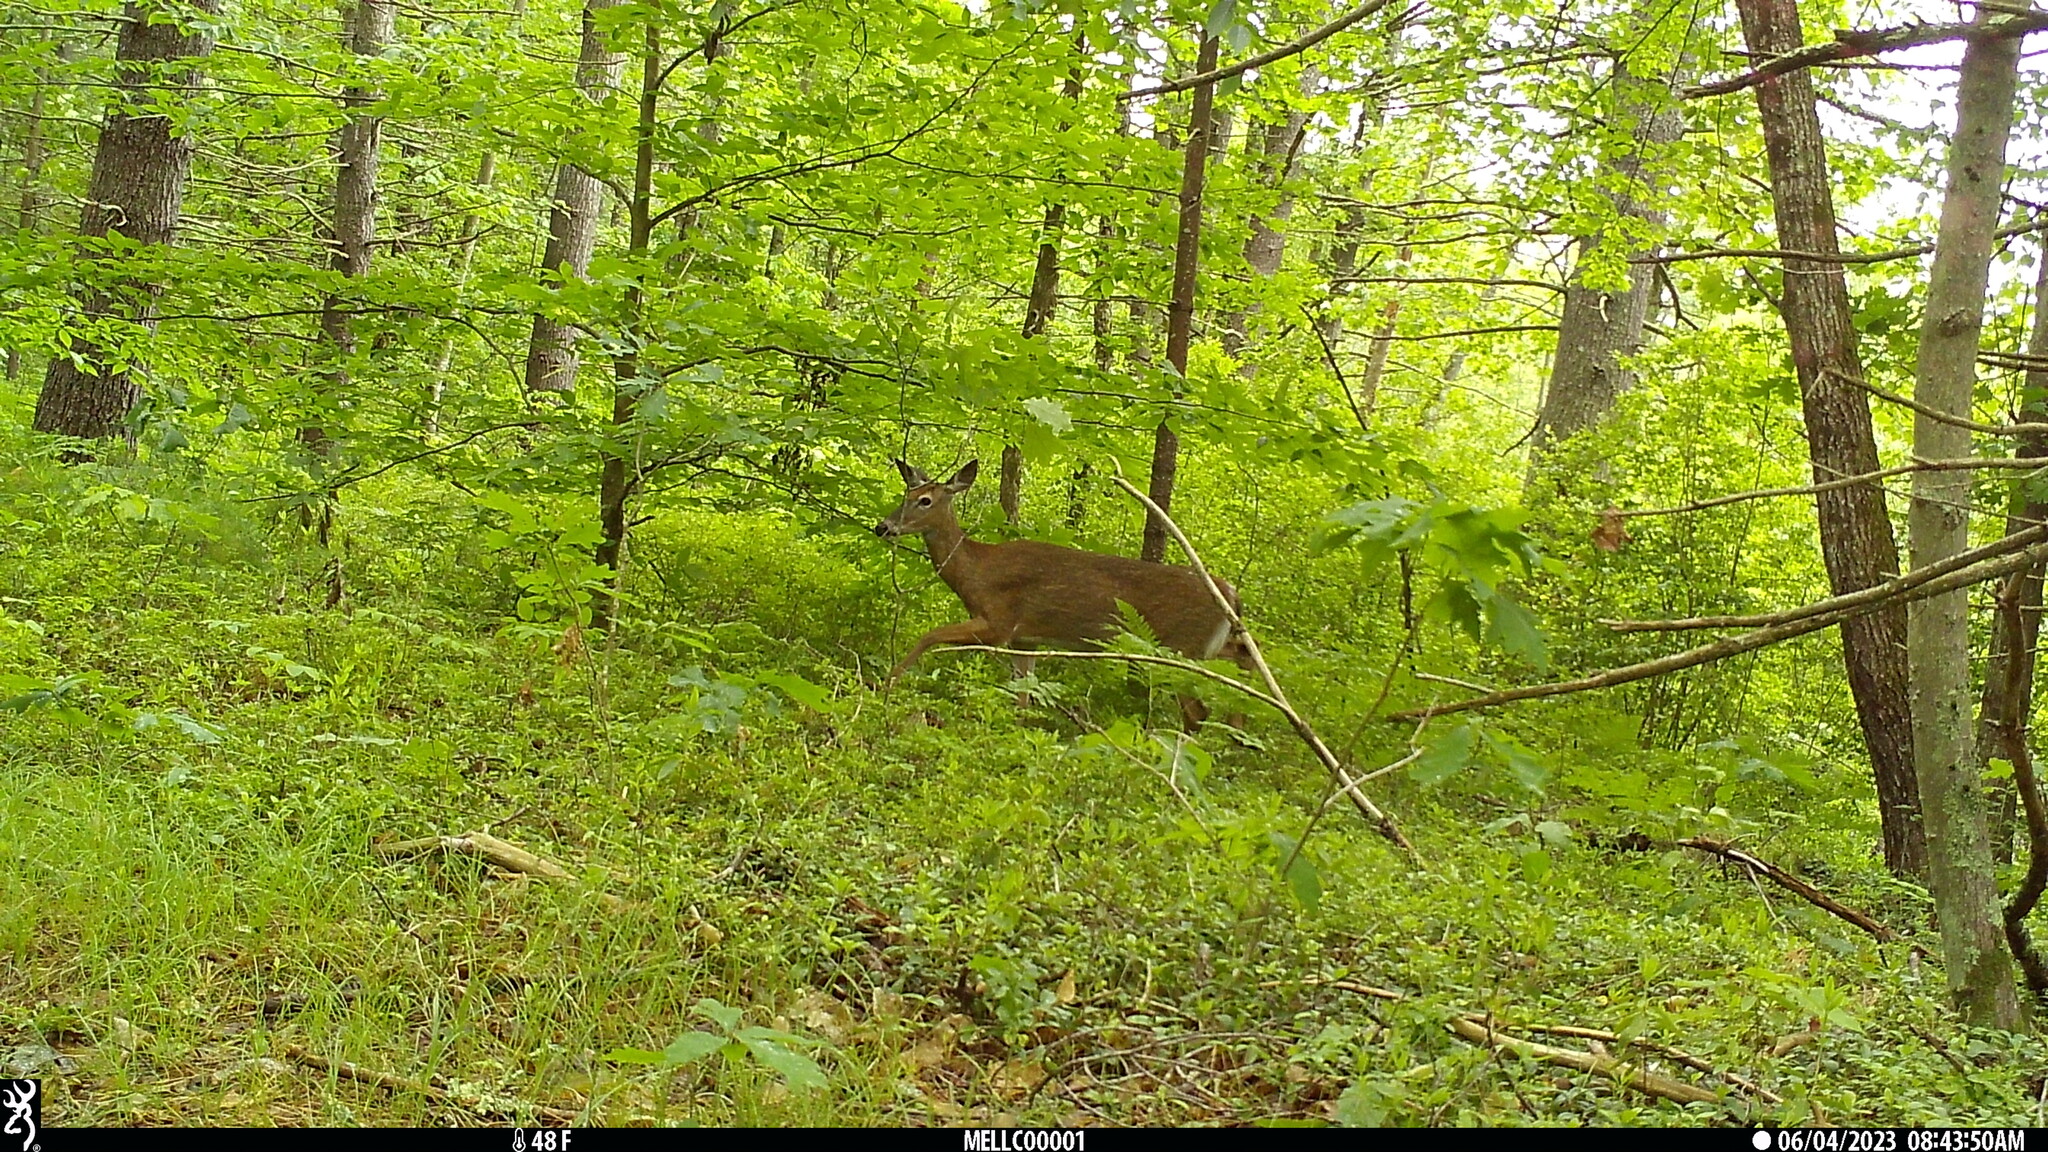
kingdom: Animalia
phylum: Chordata
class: Mammalia
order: Artiodactyla
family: Cervidae
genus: Odocoileus
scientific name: Odocoileus virginianus
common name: White-tailed deer
